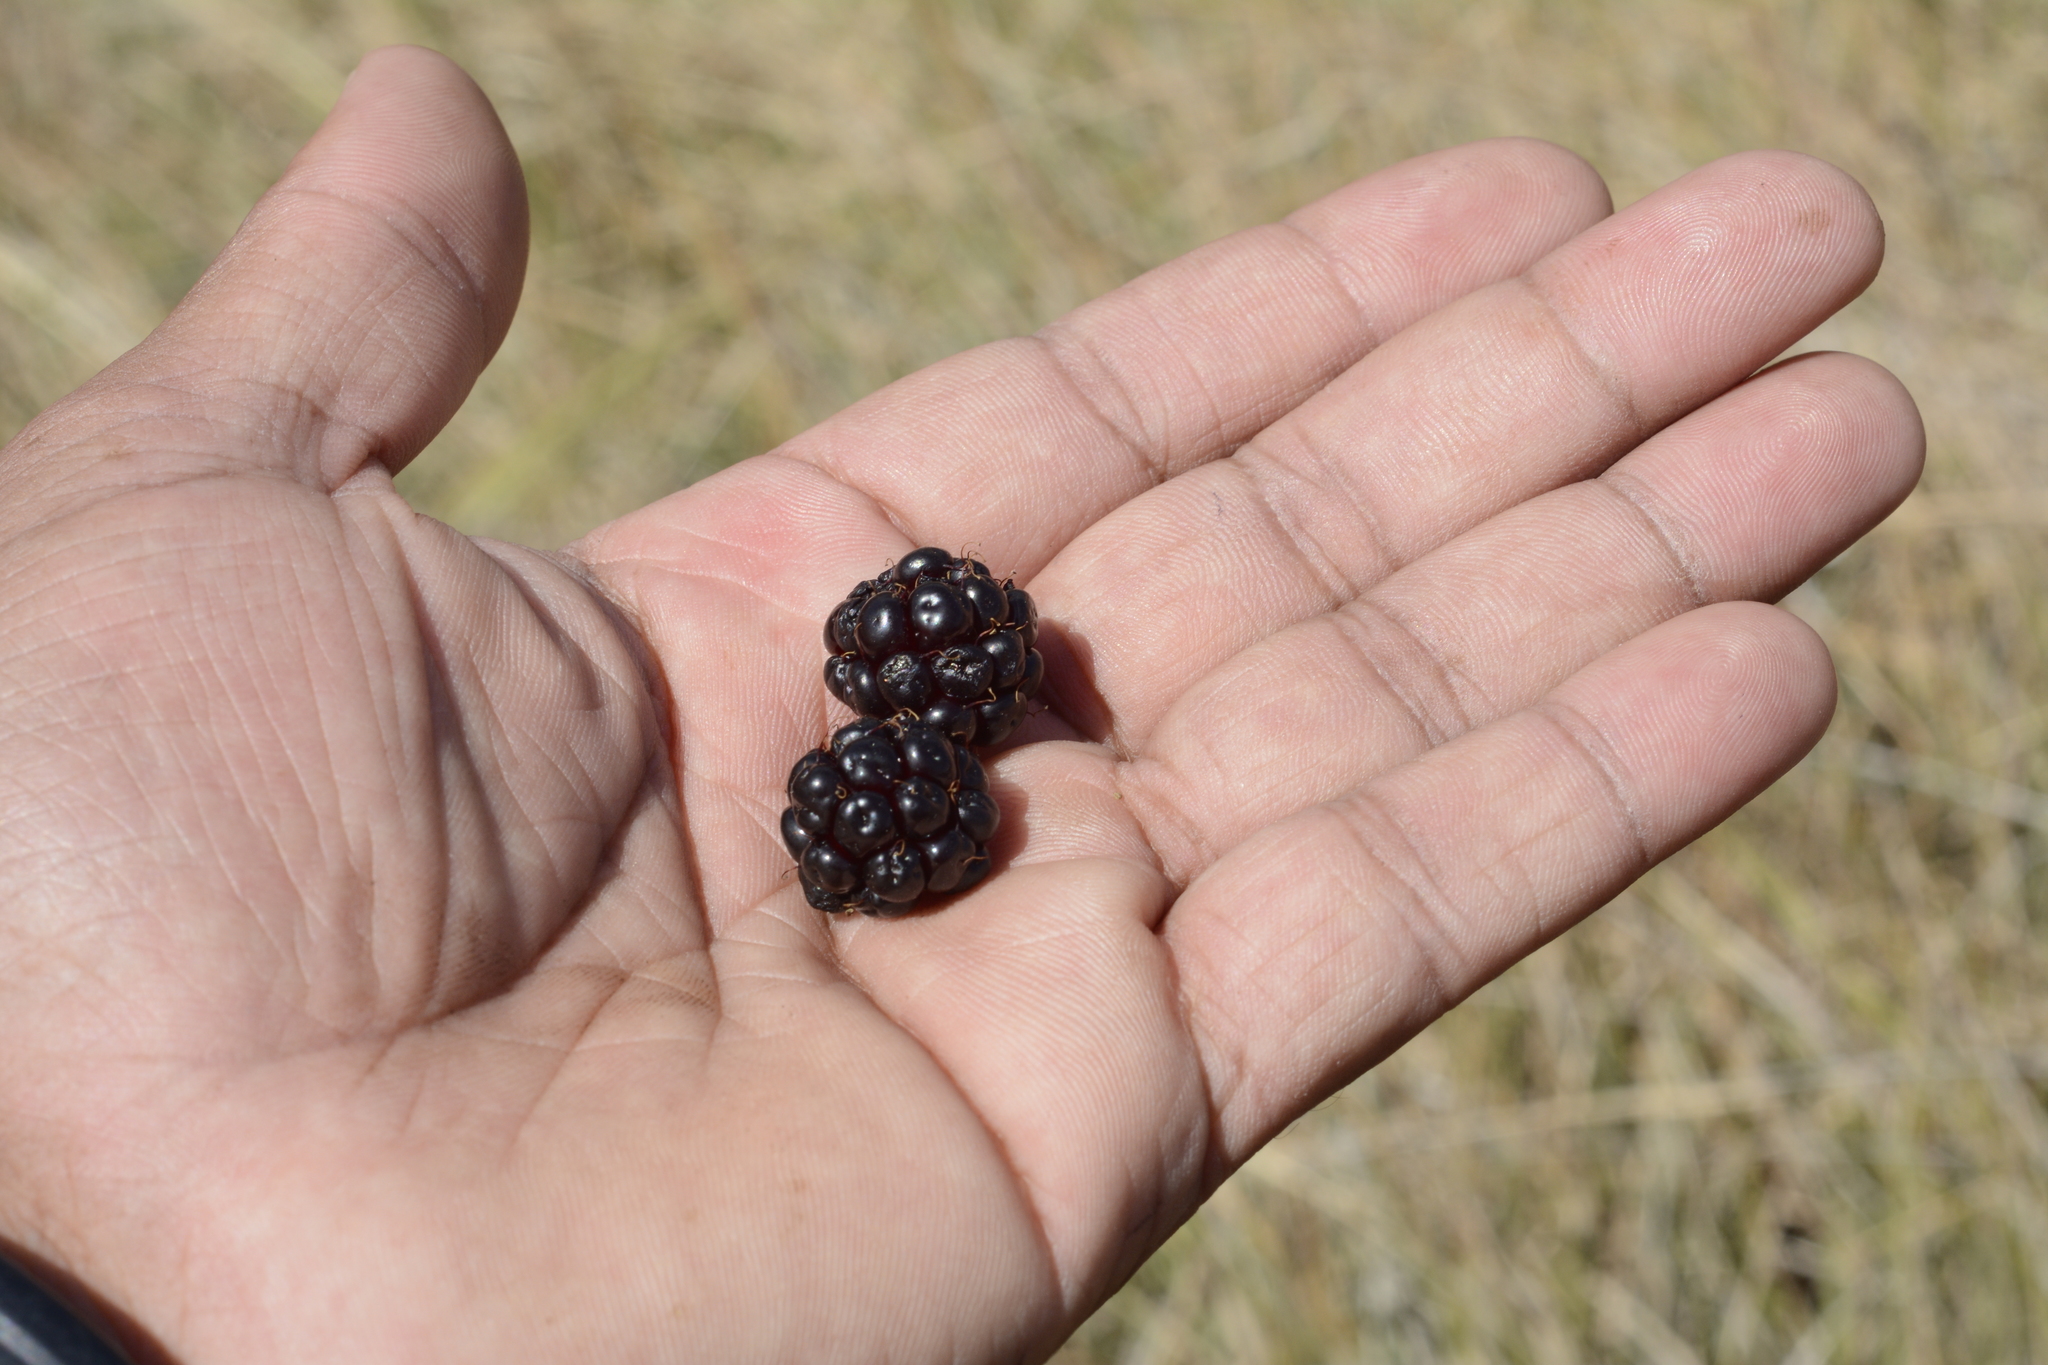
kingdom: Plantae
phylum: Tracheophyta
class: Magnoliopsida
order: Rosales
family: Rosaceae
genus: Rubus
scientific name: Rubus fairholmianus
